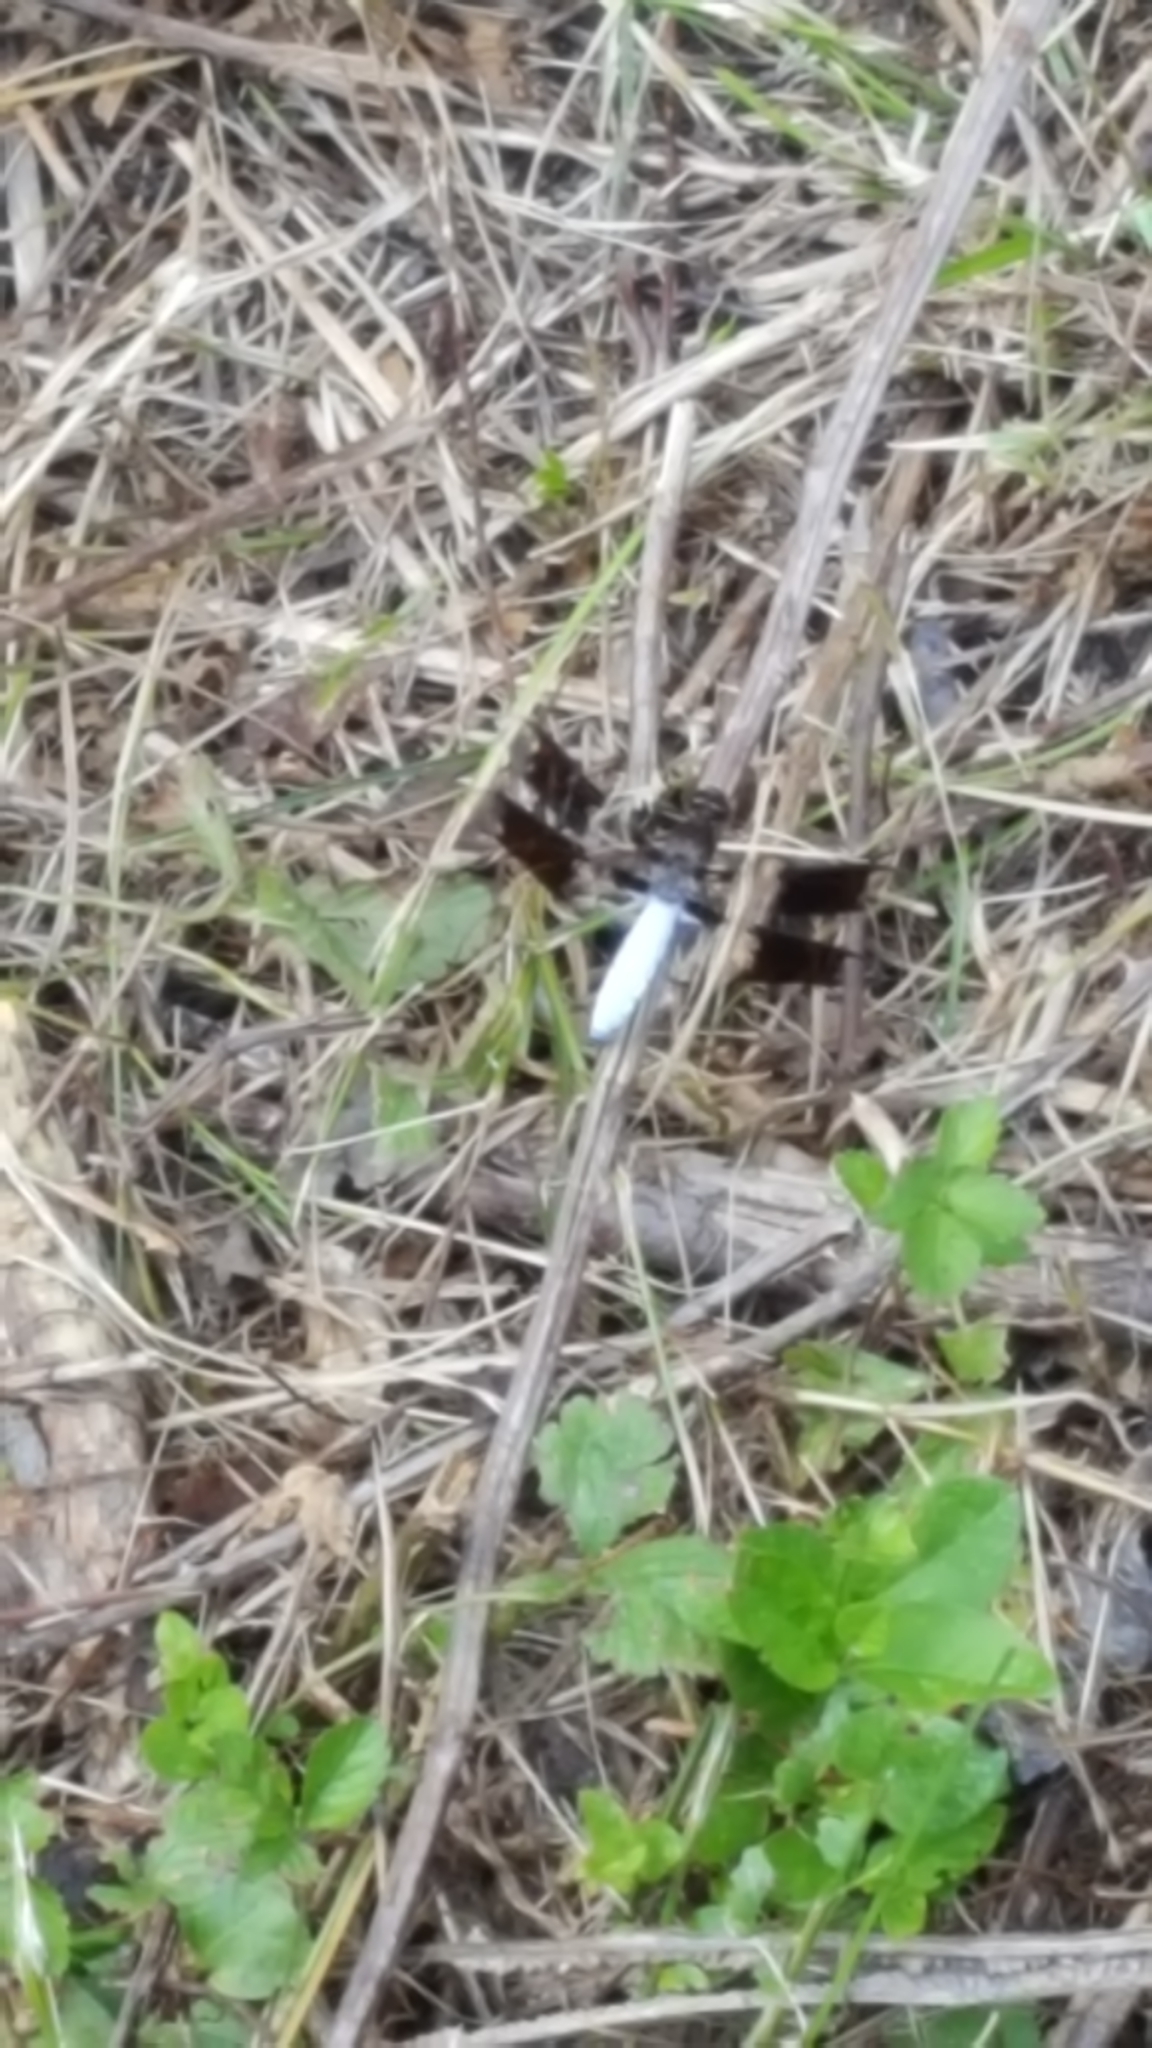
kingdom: Animalia
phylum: Arthropoda
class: Insecta
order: Odonata
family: Libellulidae
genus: Plathemis
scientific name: Plathemis lydia
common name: Common whitetail
